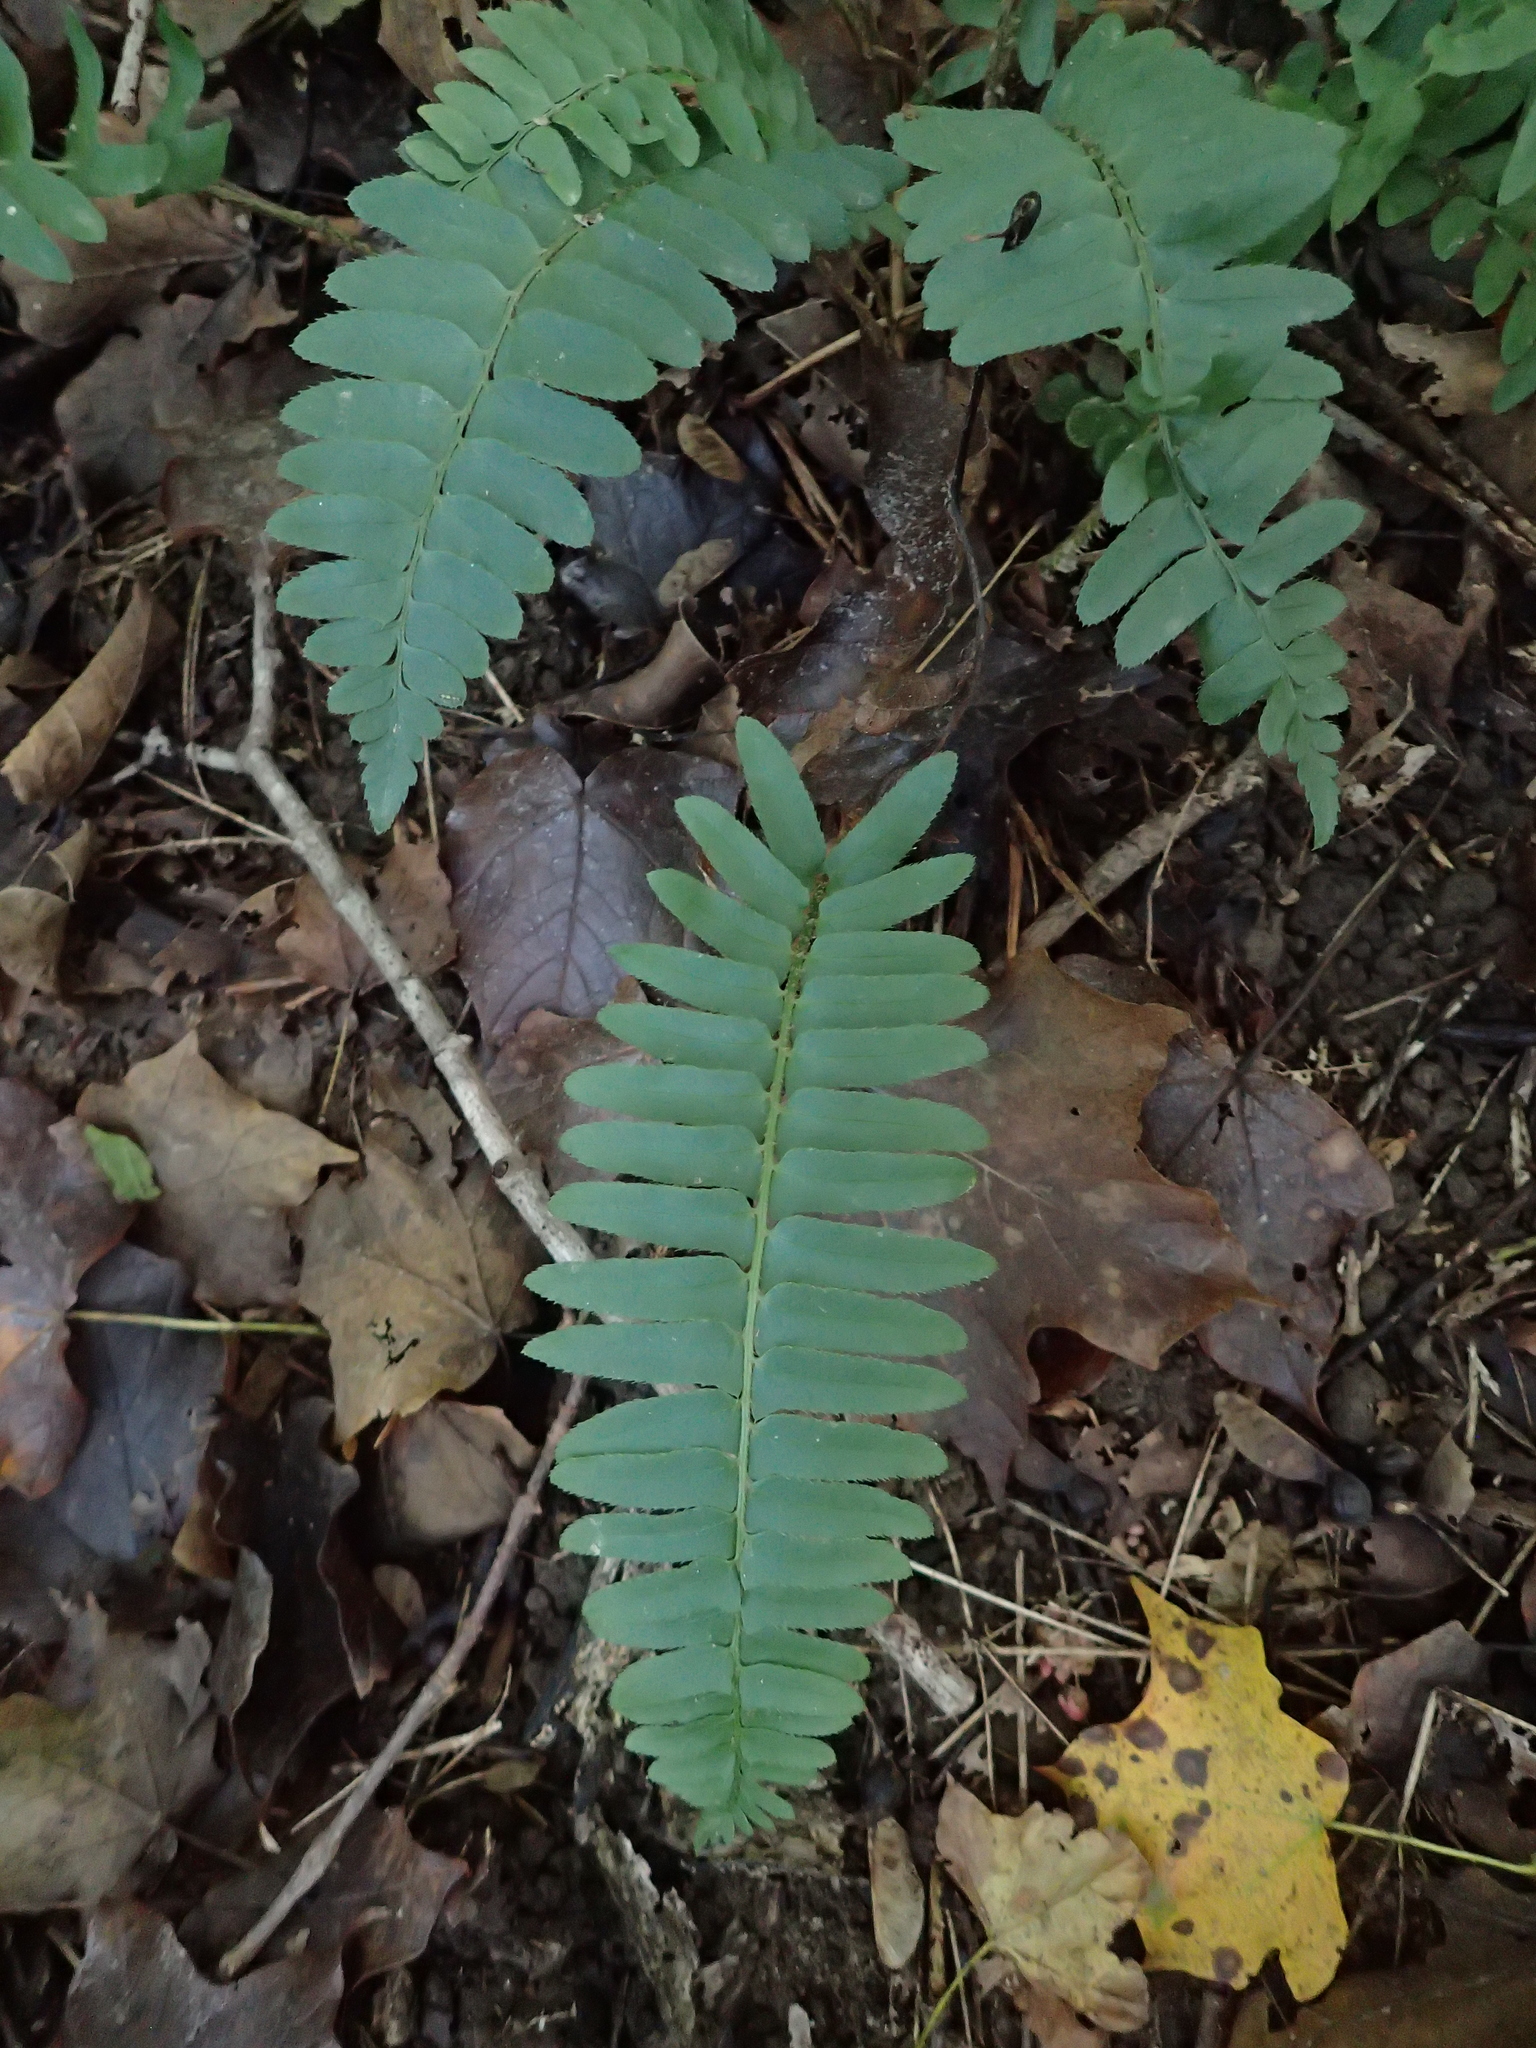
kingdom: Plantae
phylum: Tracheophyta
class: Polypodiopsida
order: Polypodiales
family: Dryopteridaceae
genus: Polystichum
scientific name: Polystichum acrostichoides
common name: Christmas fern
